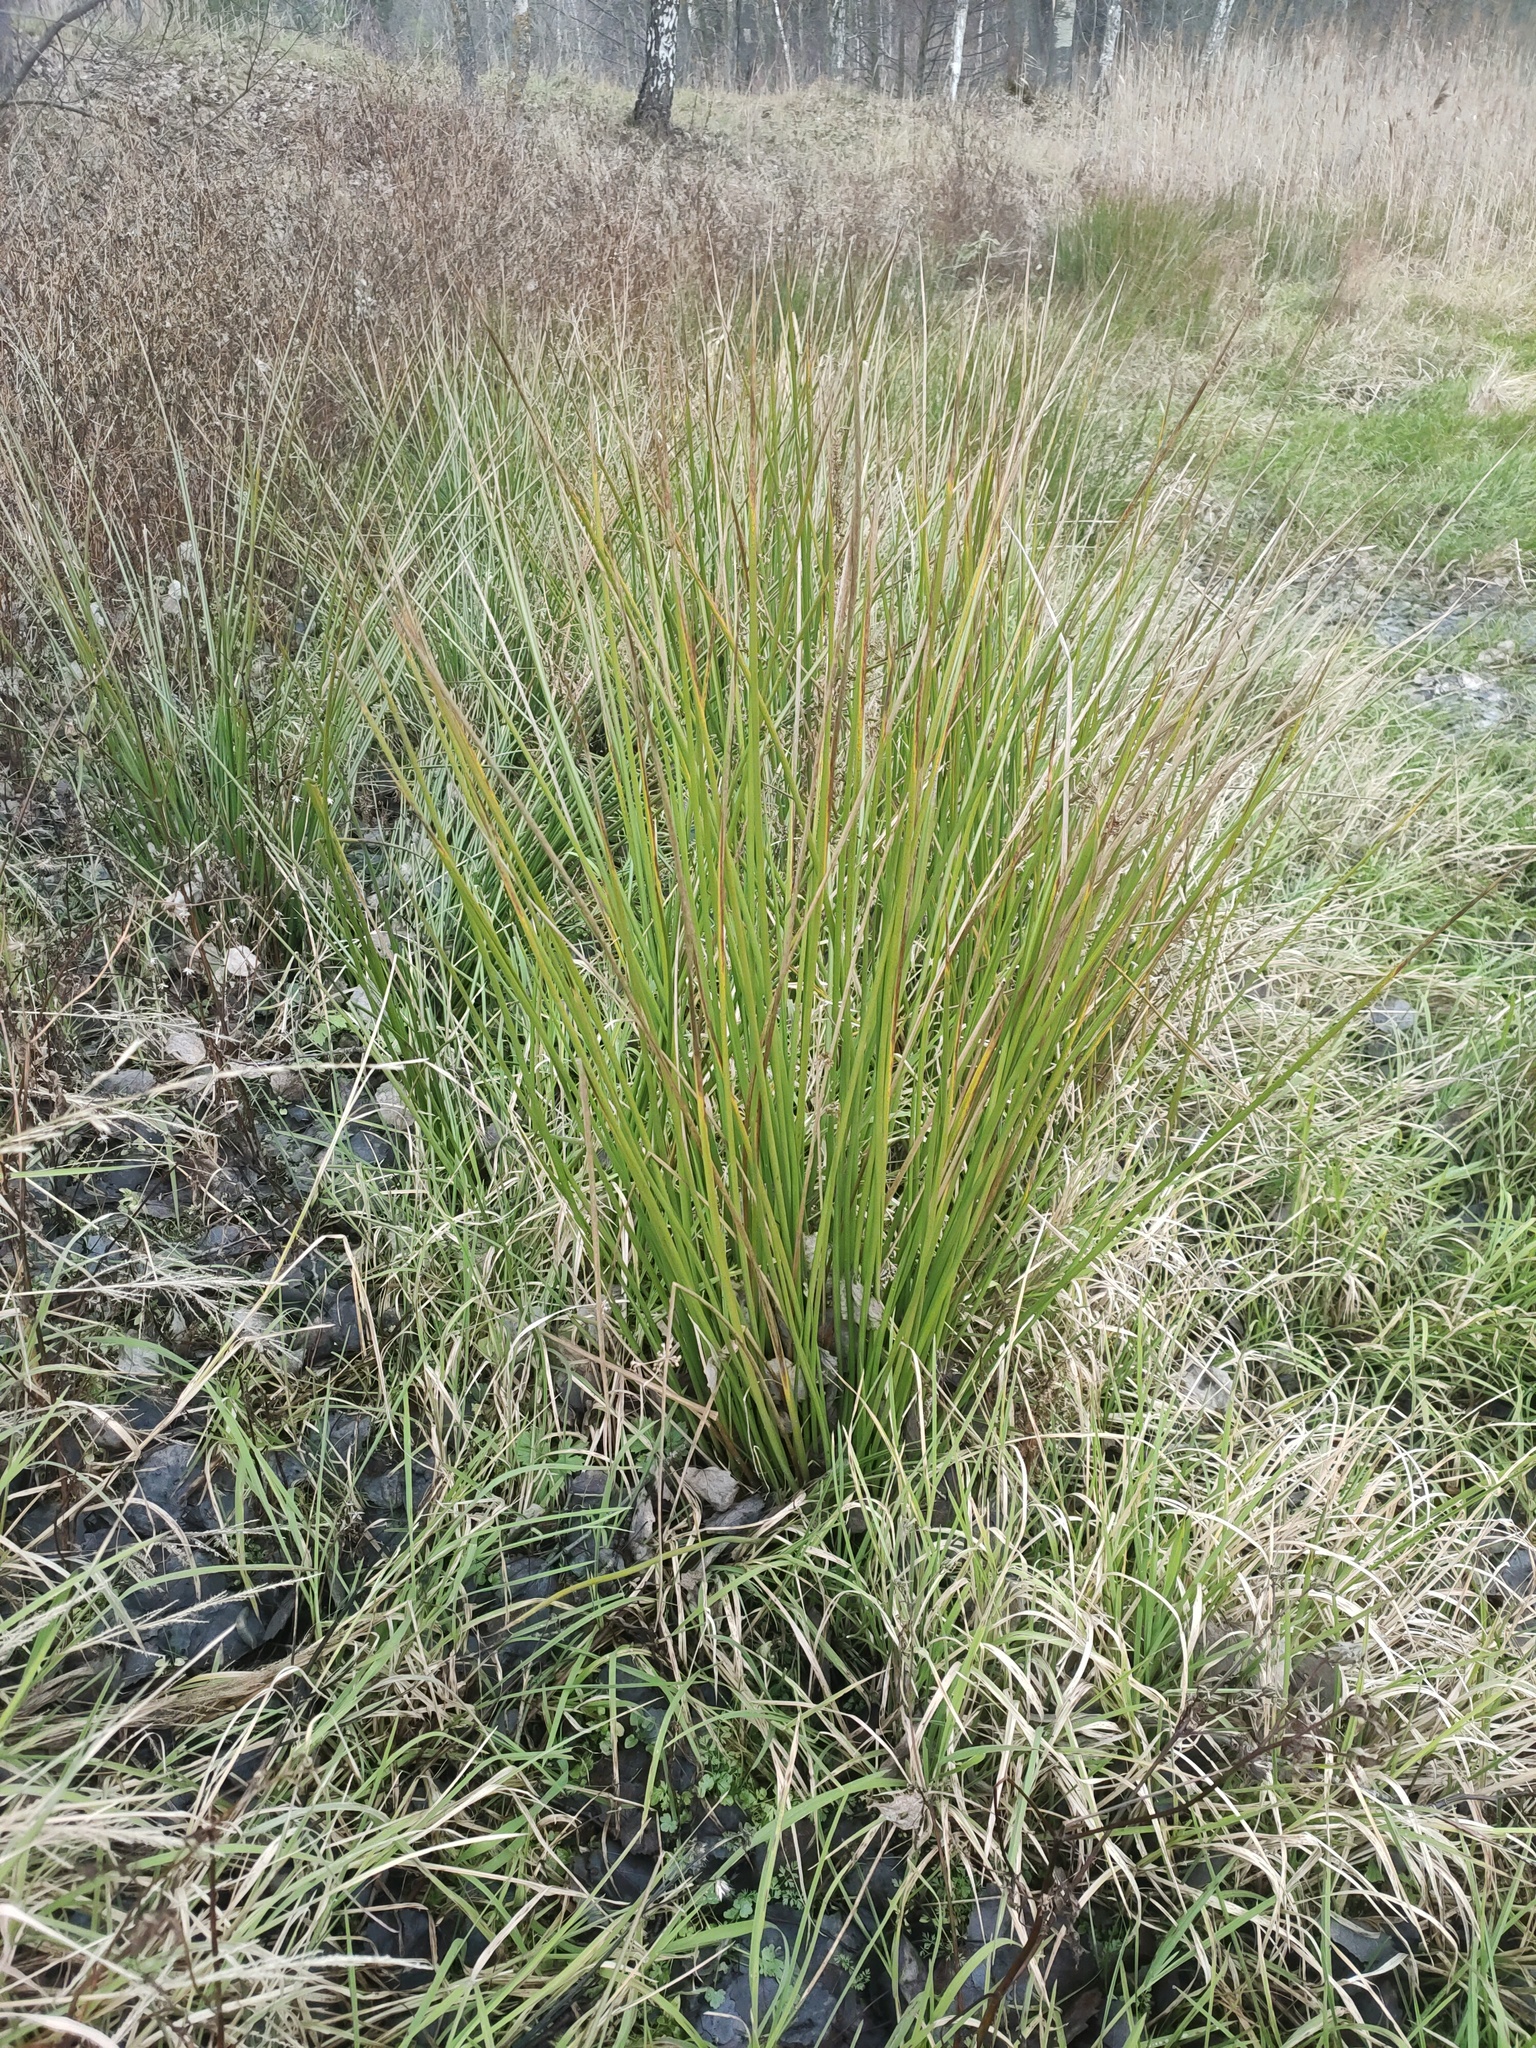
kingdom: Plantae
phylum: Tracheophyta
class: Liliopsida
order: Poales
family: Juncaceae
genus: Juncus
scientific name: Juncus effusus
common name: Soft rush
